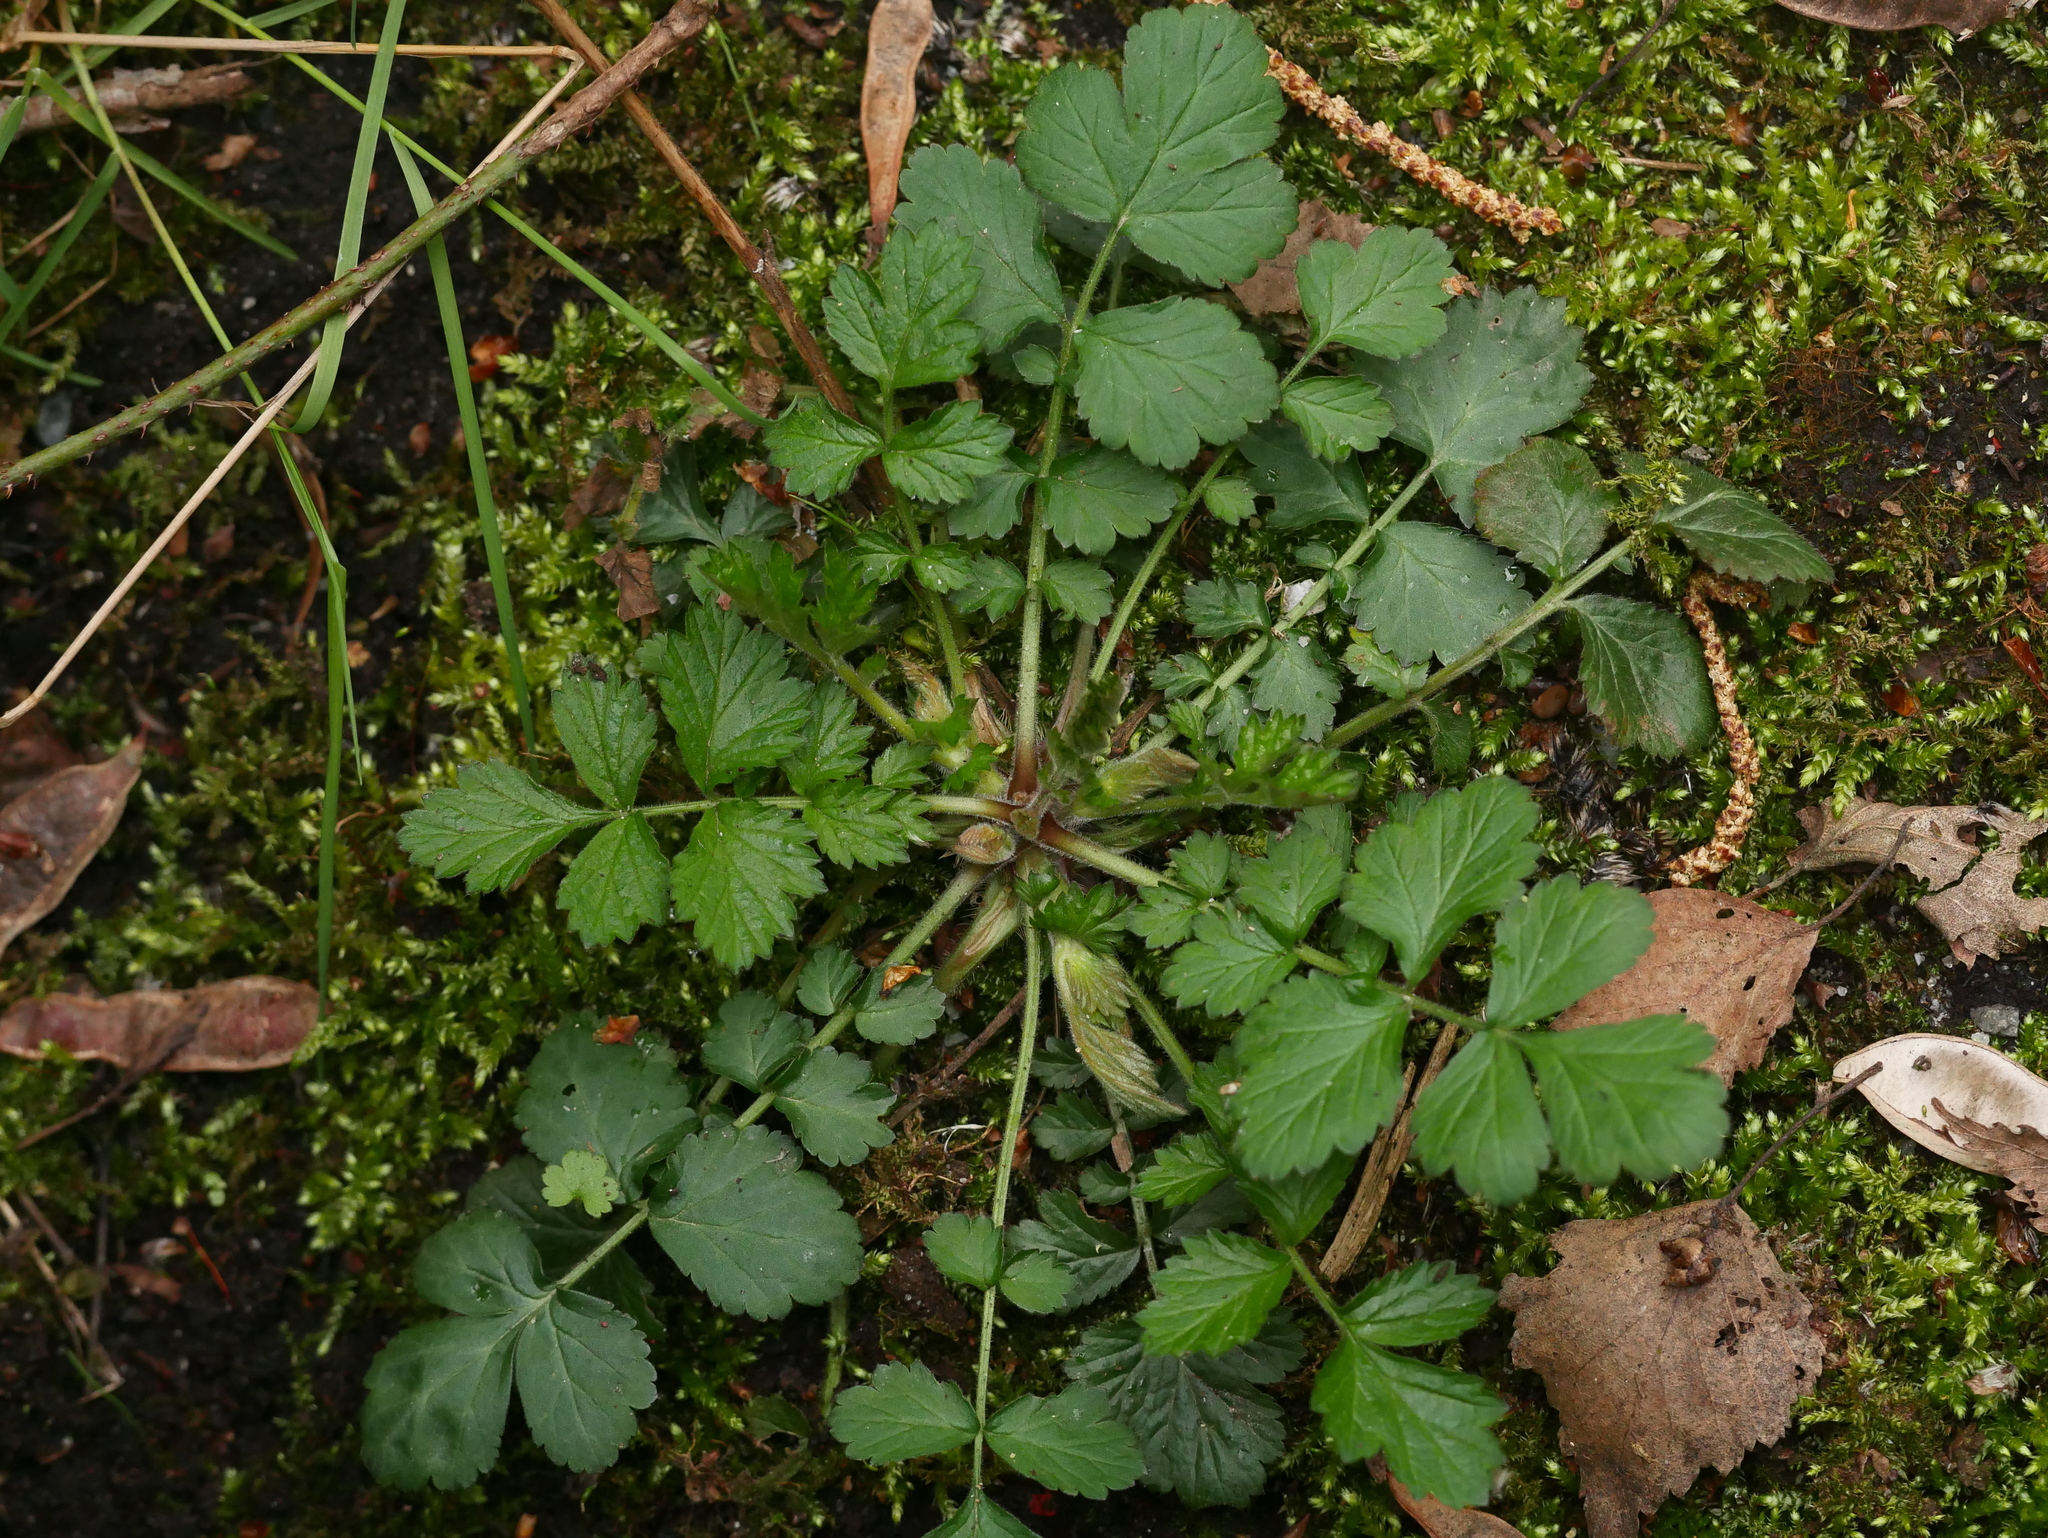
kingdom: Plantae
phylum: Tracheophyta
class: Magnoliopsida
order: Rosales
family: Rosaceae
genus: Geum
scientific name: Geum urbanum
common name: Wood avens
